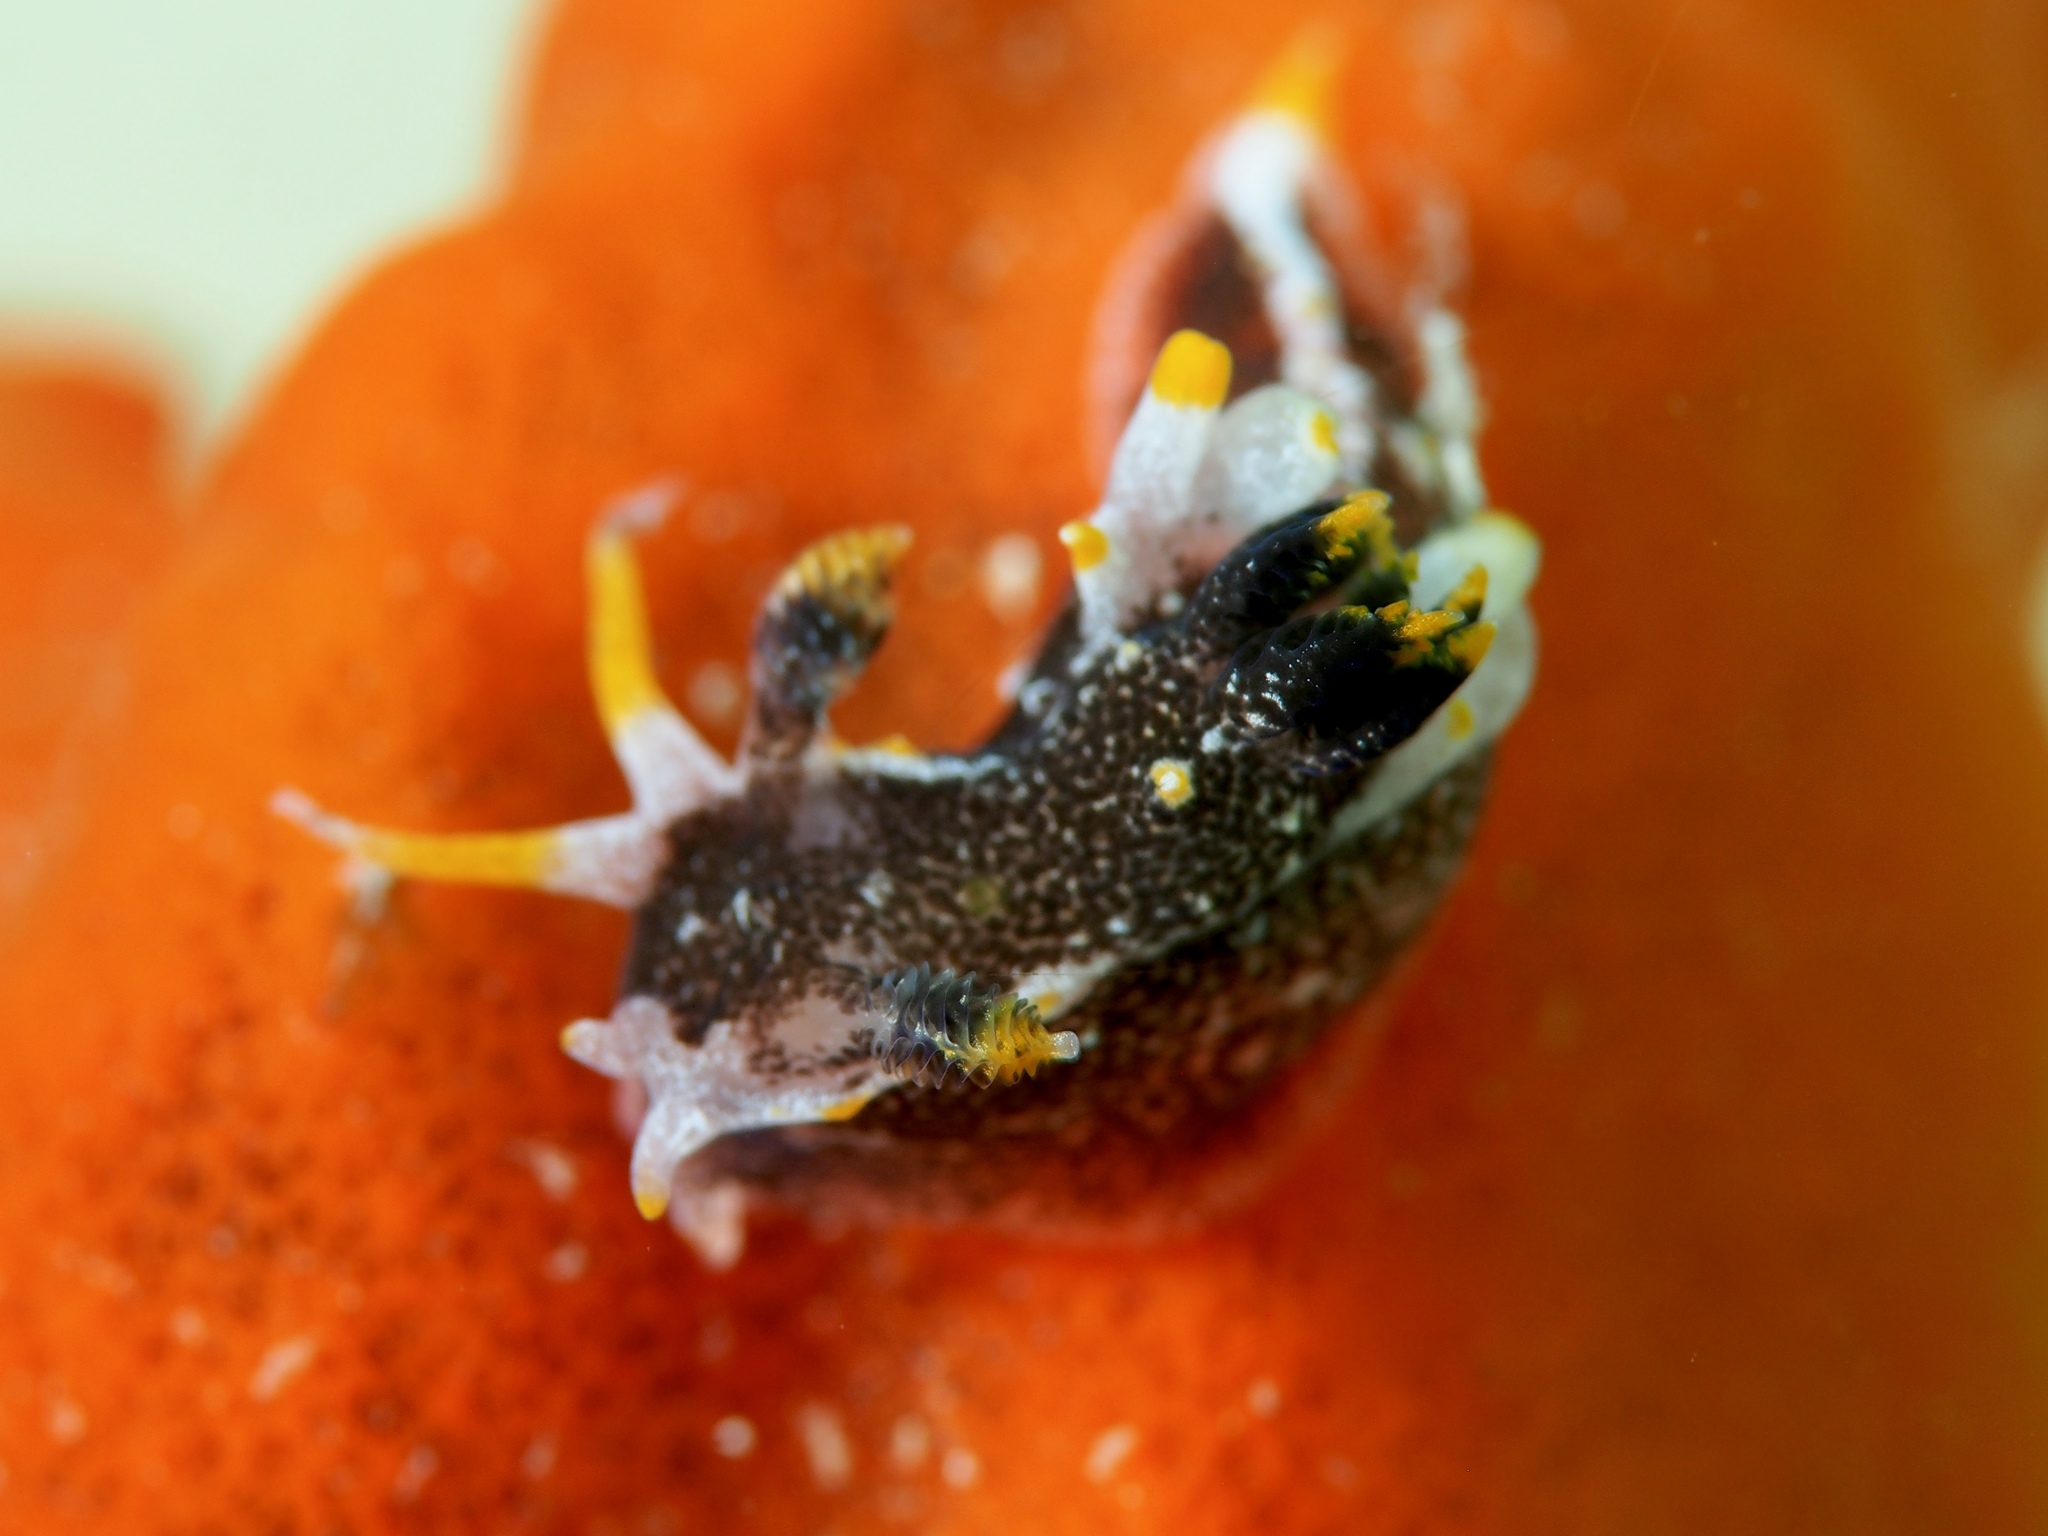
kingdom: Animalia
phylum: Mollusca
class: Gastropoda
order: Nudibranchia
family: Polyceridae
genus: Polycera
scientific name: Polycera hedgpethi
